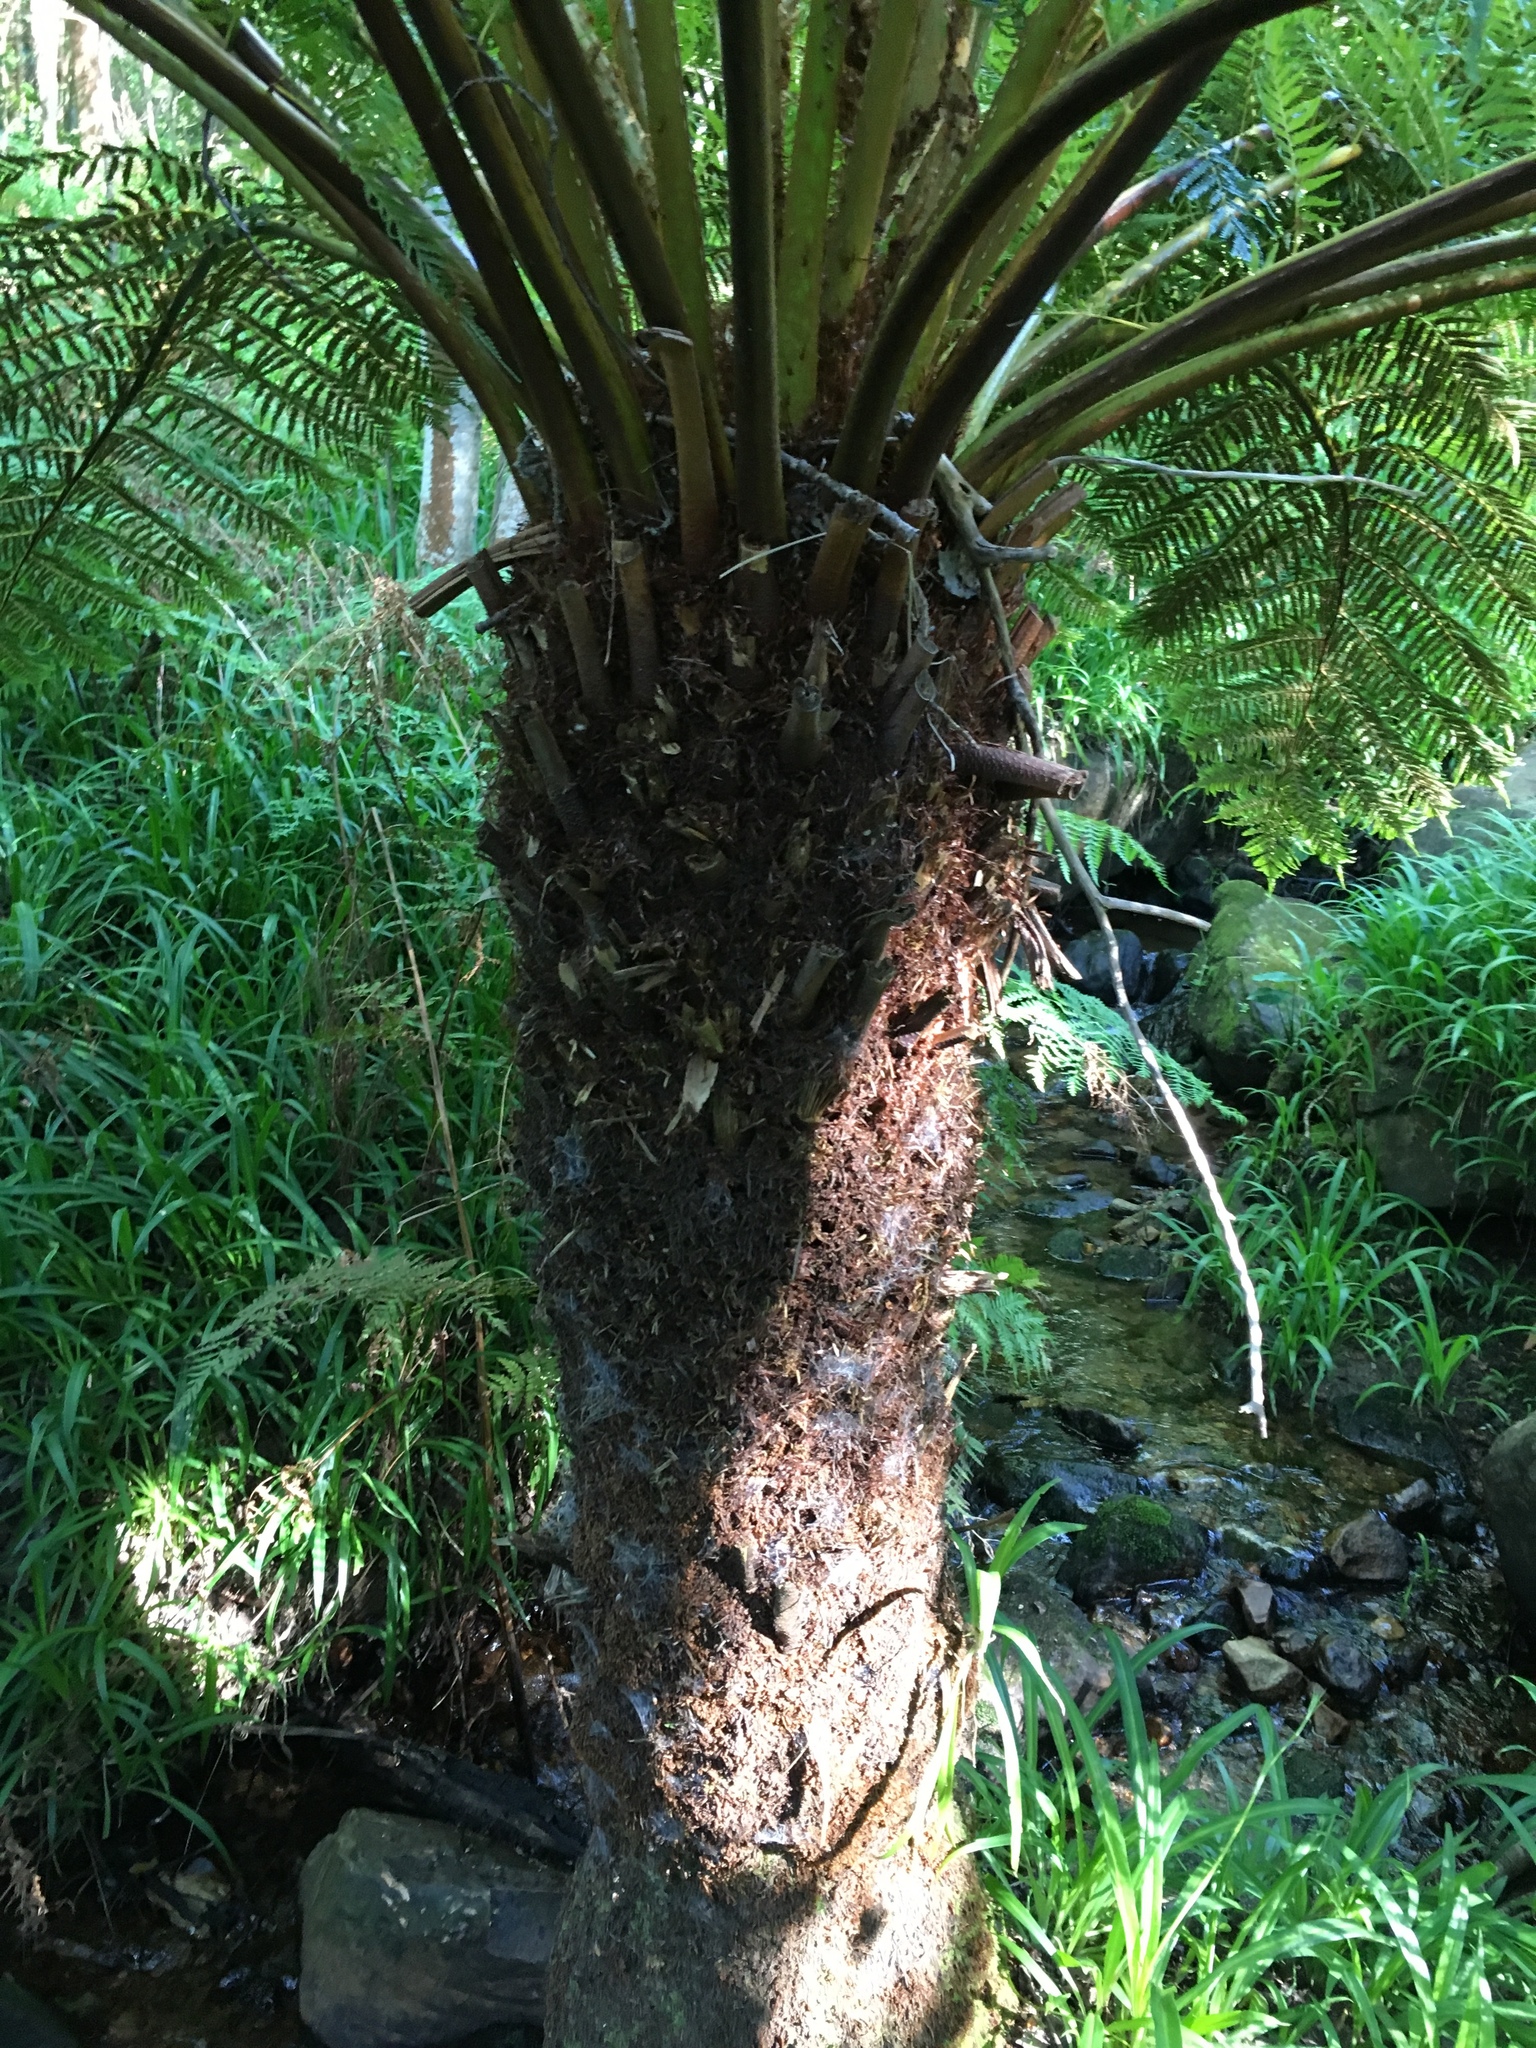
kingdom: Plantae
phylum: Tracheophyta
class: Polypodiopsida
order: Cyatheales
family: Cyatheaceae
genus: Alsophila
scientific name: Alsophila dregei
